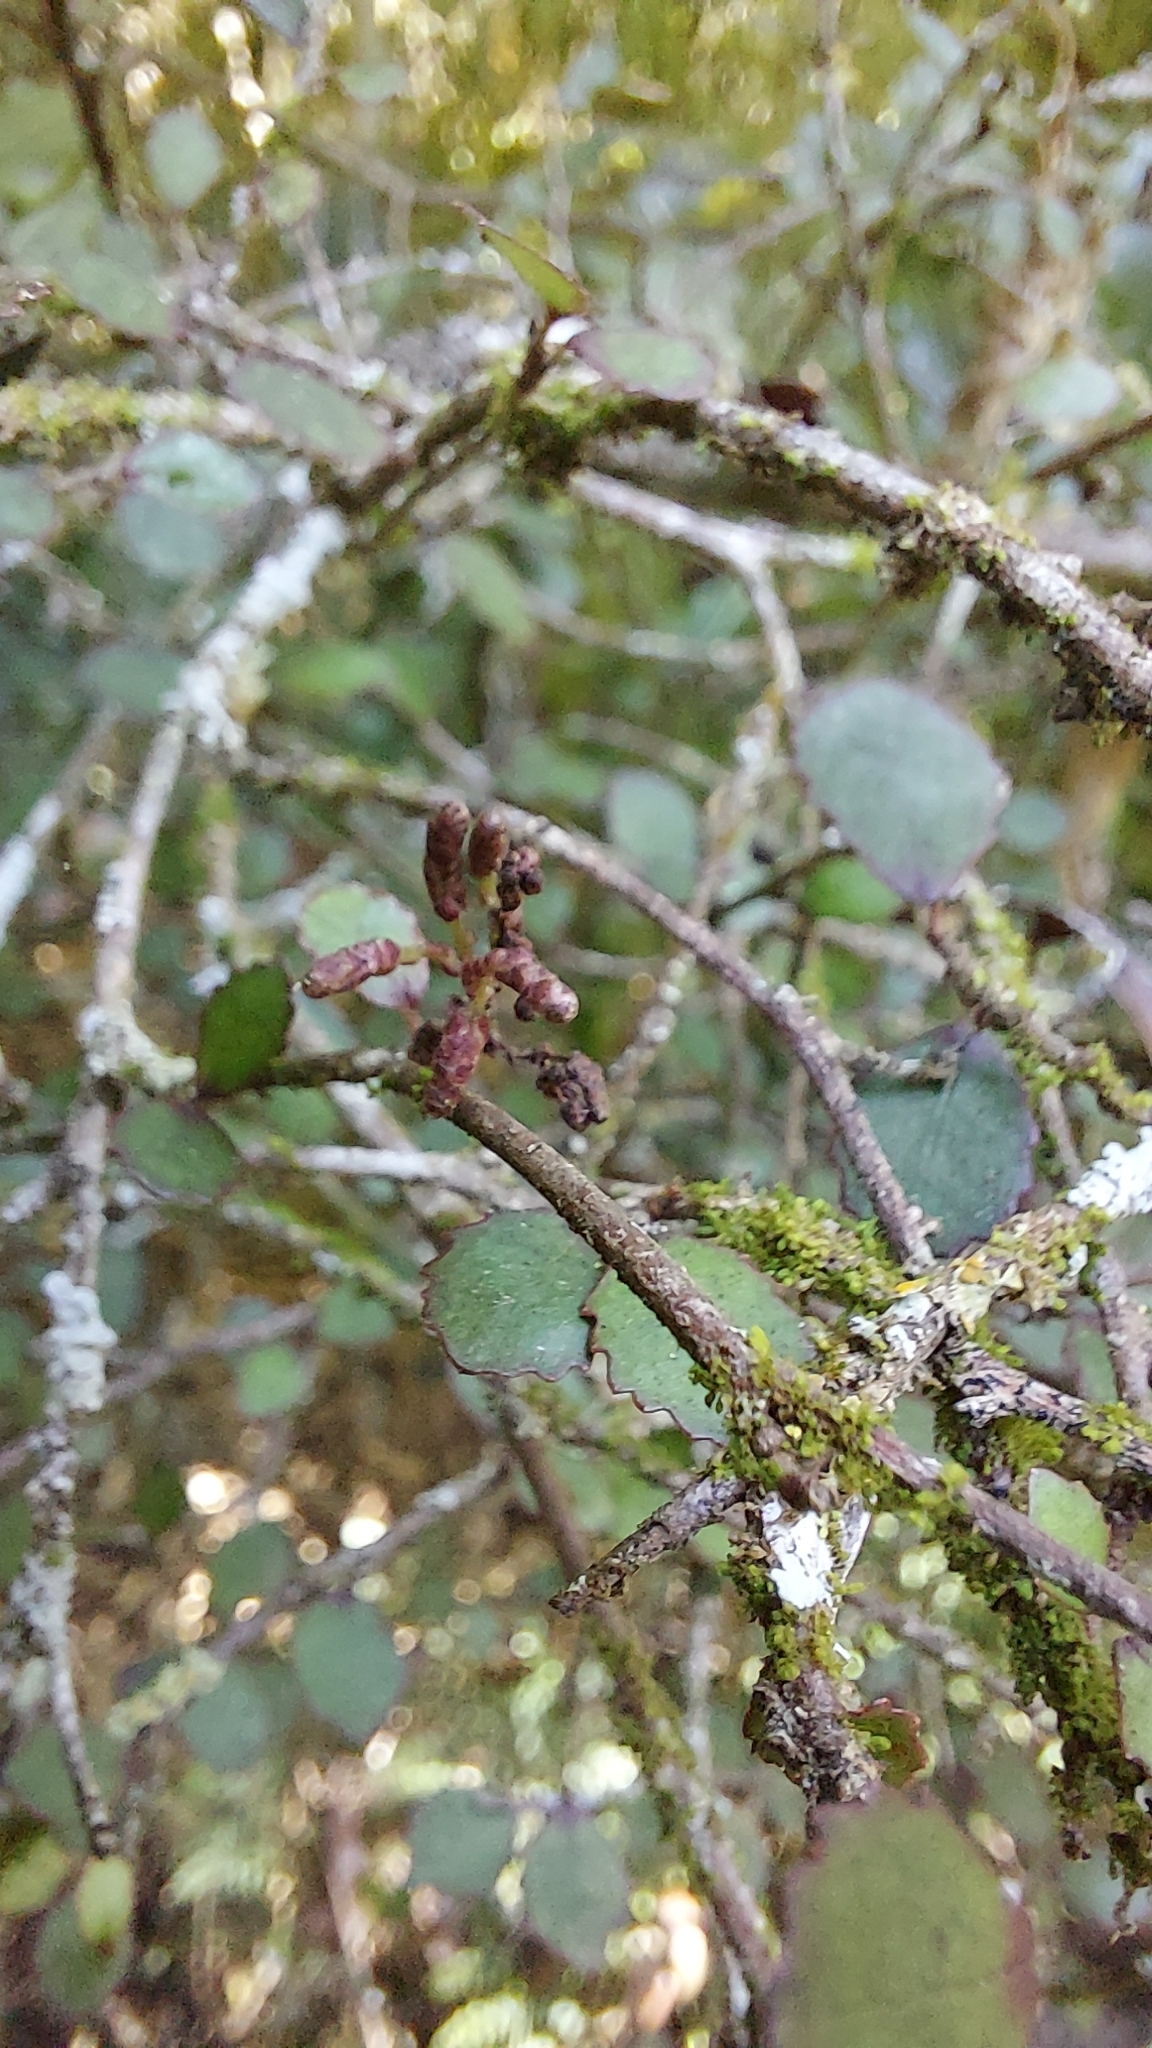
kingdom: Plantae
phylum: Tracheophyta
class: Magnoliopsida
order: Rosales
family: Moraceae
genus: Paratrophis
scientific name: Paratrophis microphylla
